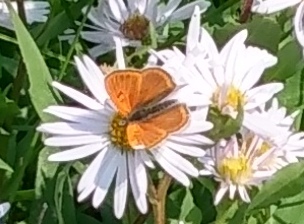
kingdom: Animalia
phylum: Arthropoda
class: Insecta
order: Lepidoptera
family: Lycaenidae
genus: Tharsalea
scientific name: Tharsalea rubidus
